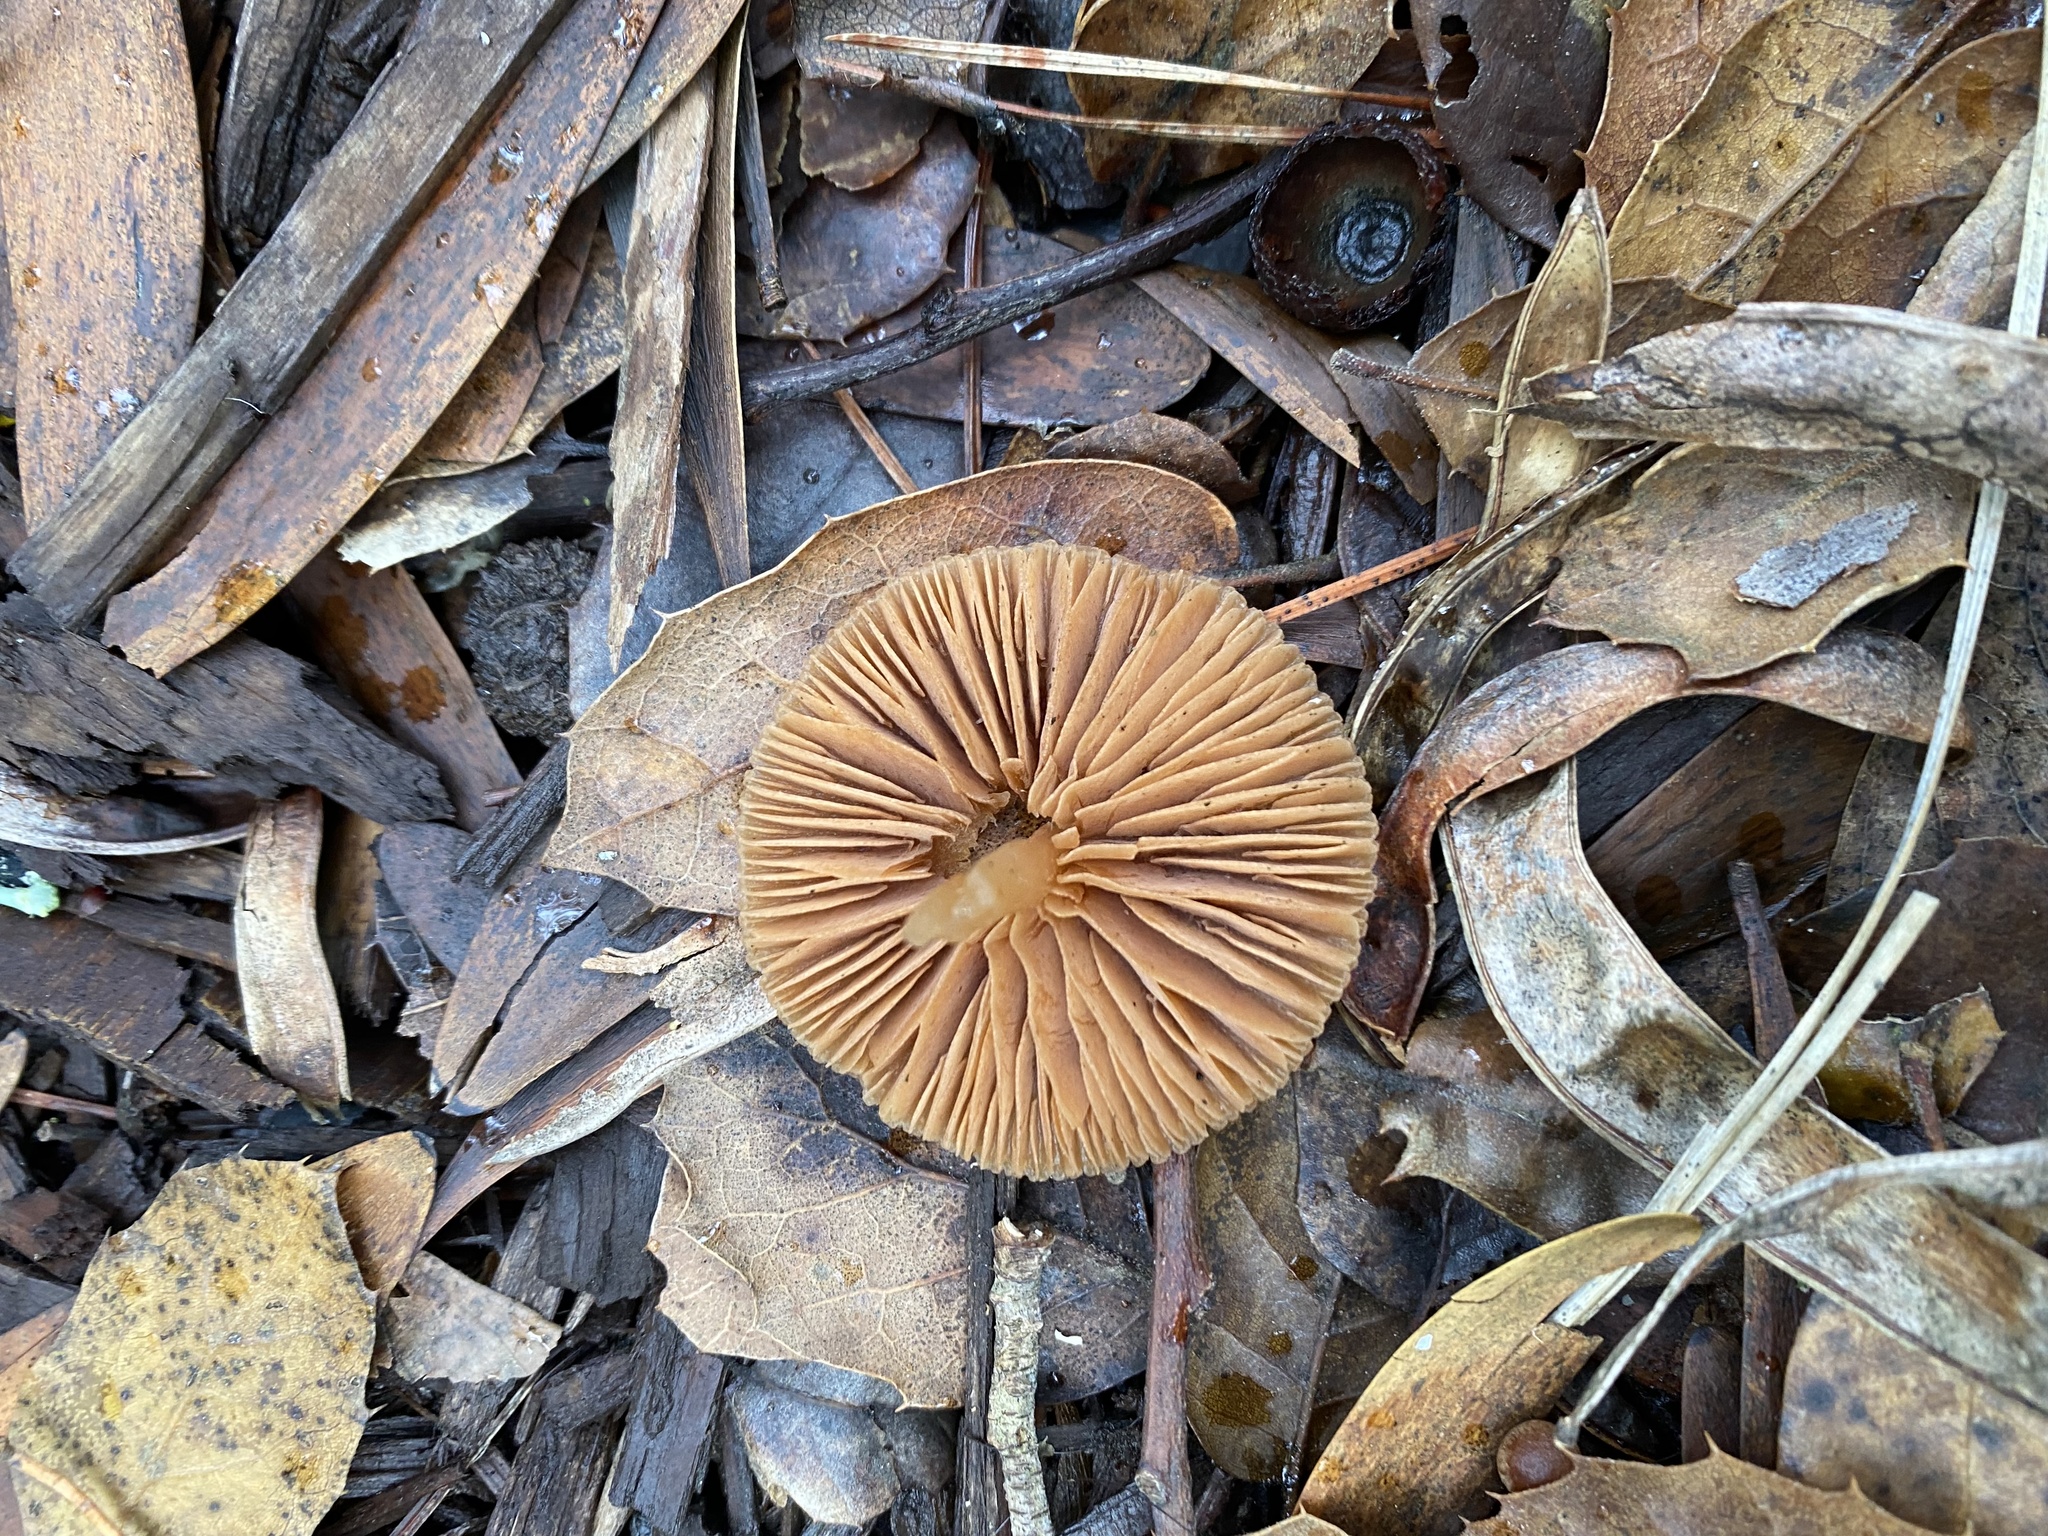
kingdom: Fungi
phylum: Basidiomycota
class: Agaricomycetes
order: Agaricales
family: Tubariaceae
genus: Tubaria
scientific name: Tubaria furfuracea
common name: Scurfy twiglet
